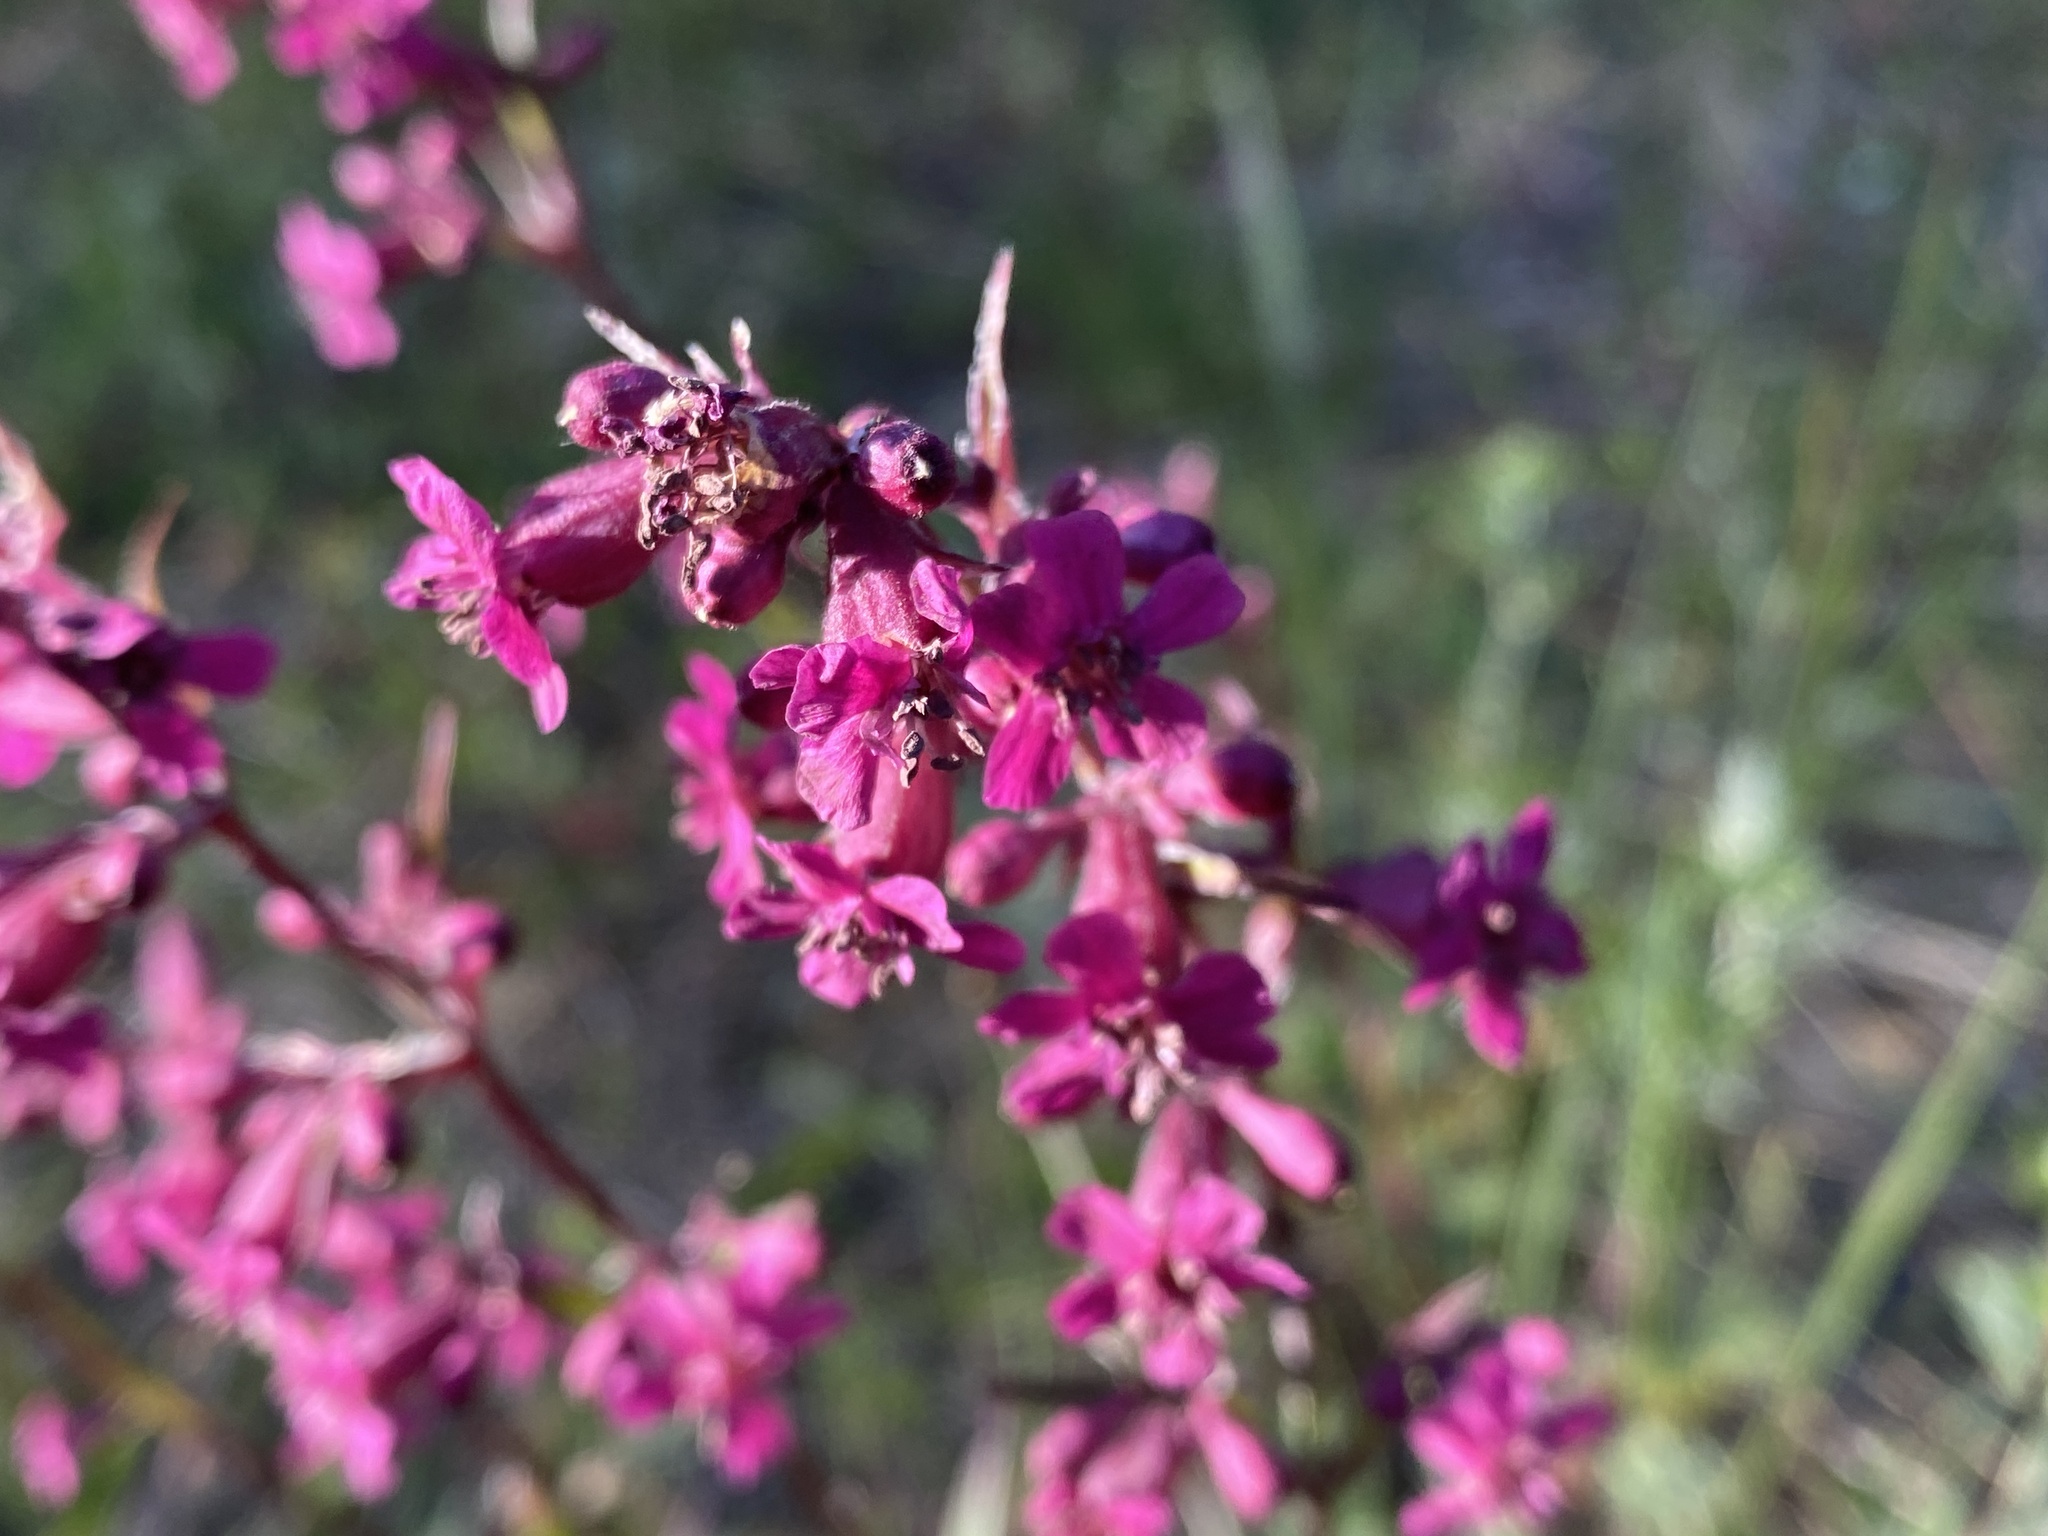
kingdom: Plantae
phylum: Tracheophyta
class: Magnoliopsida
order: Caryophyllales
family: Caryophyllaceae
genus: Viscaria
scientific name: Viscaria vulgaris
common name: Clammy campion
